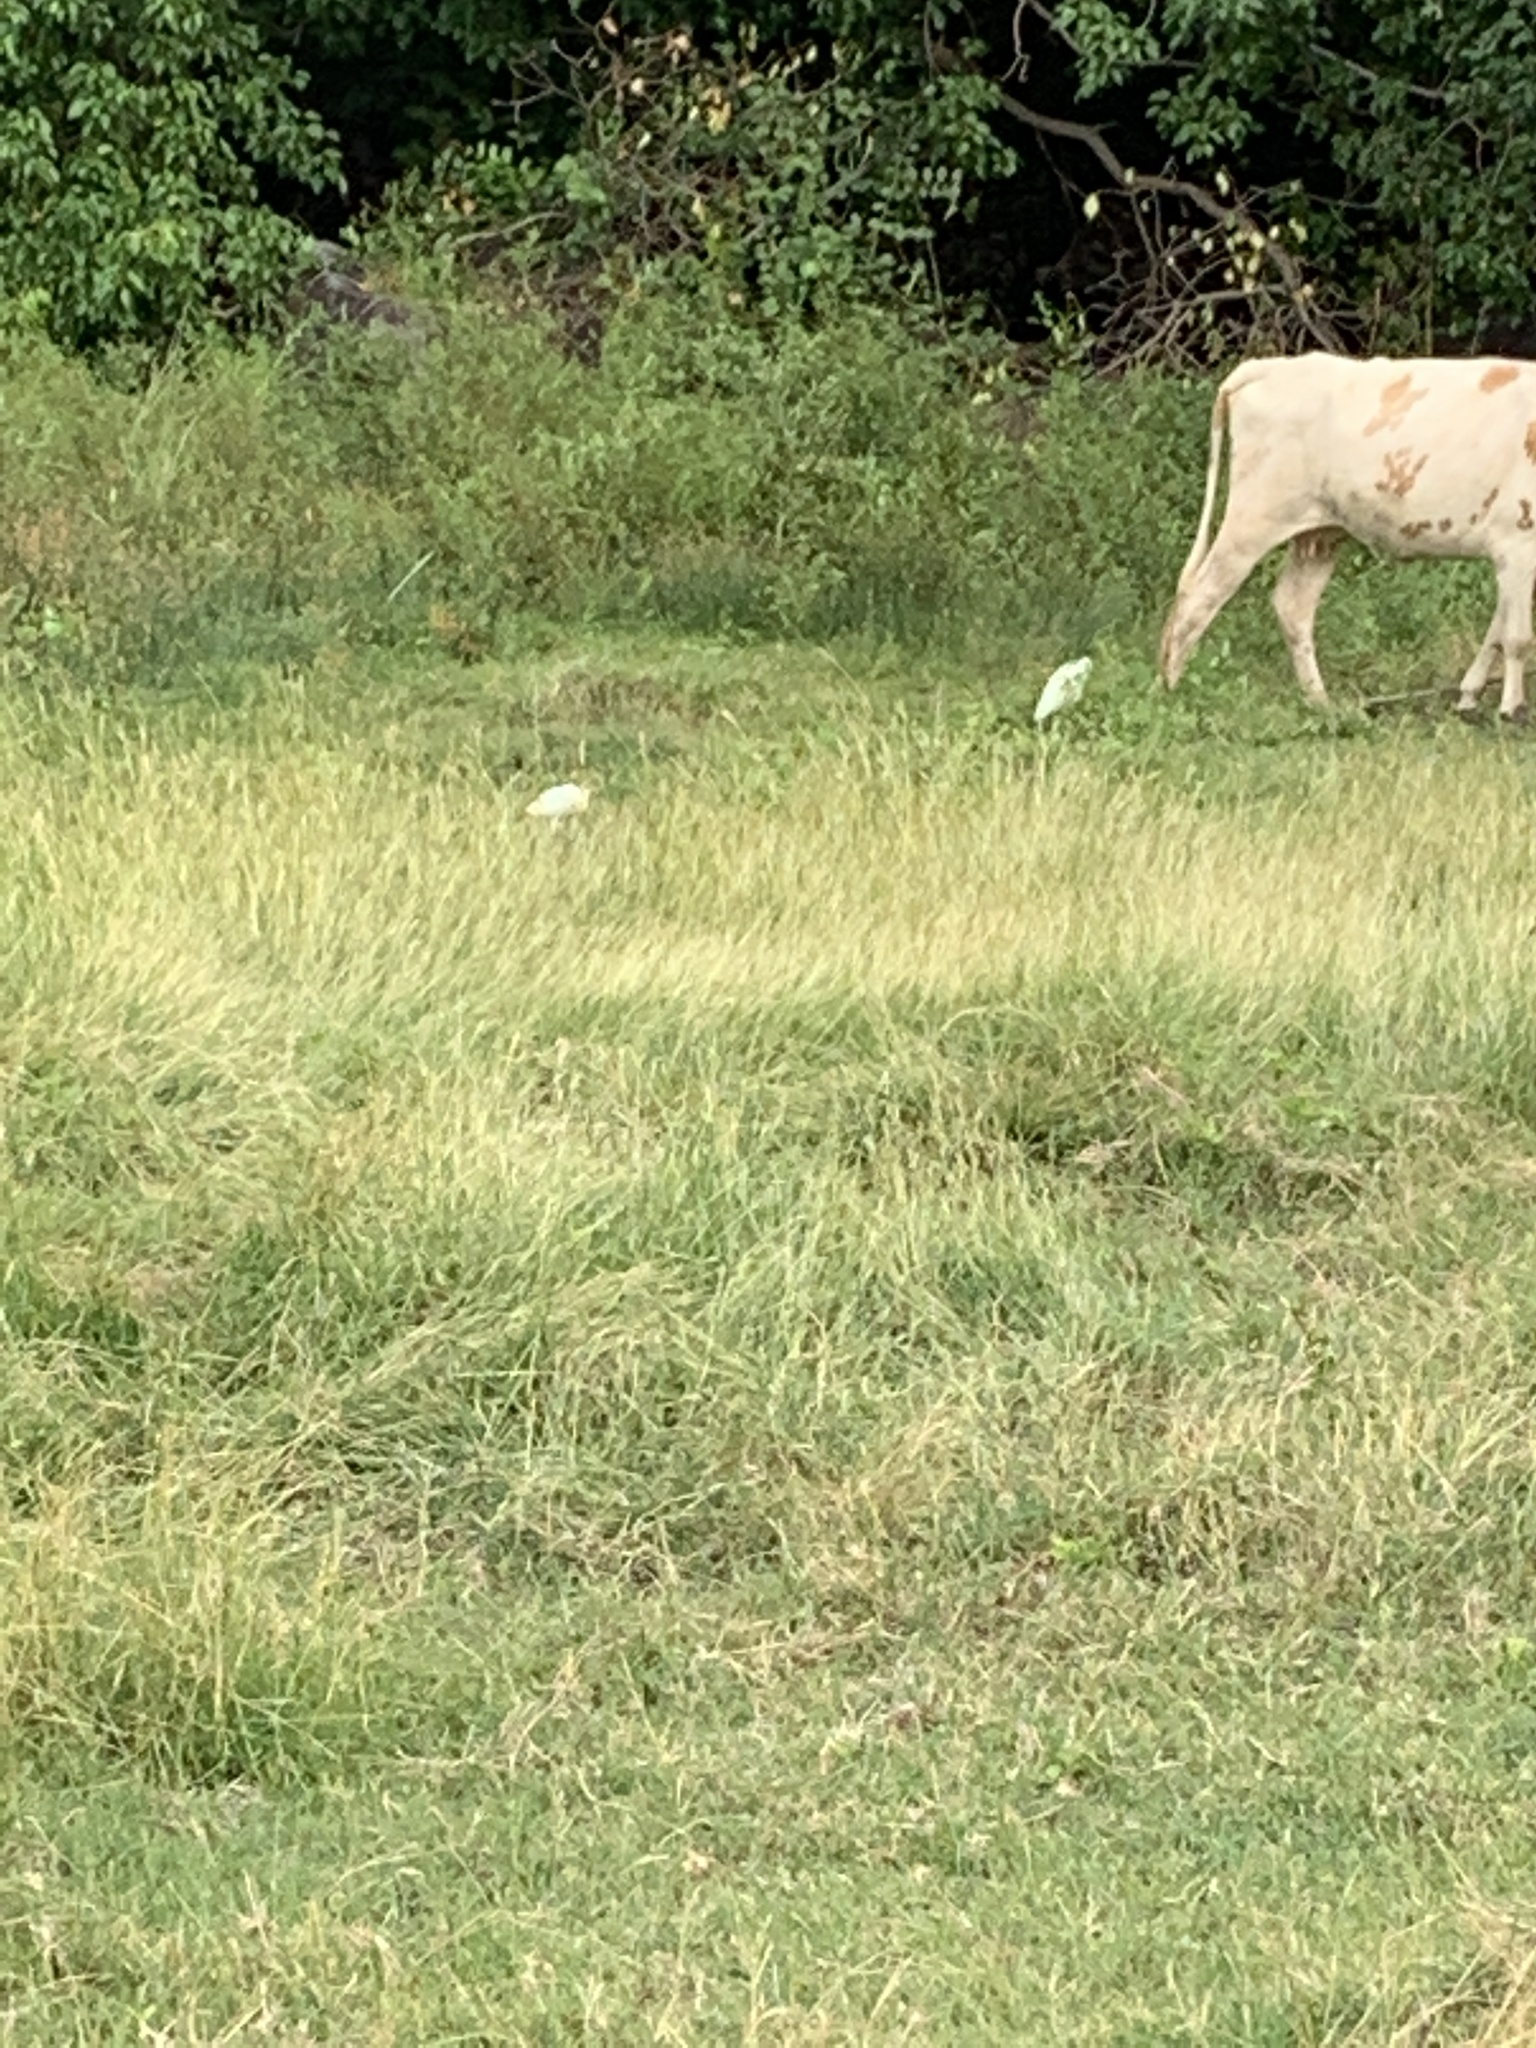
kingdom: Animalia
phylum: Chordata
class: Aves
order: Pelecaniformes
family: Ardeidae
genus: Bubulcus
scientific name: Bubulcus ibis
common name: Cattle egret
